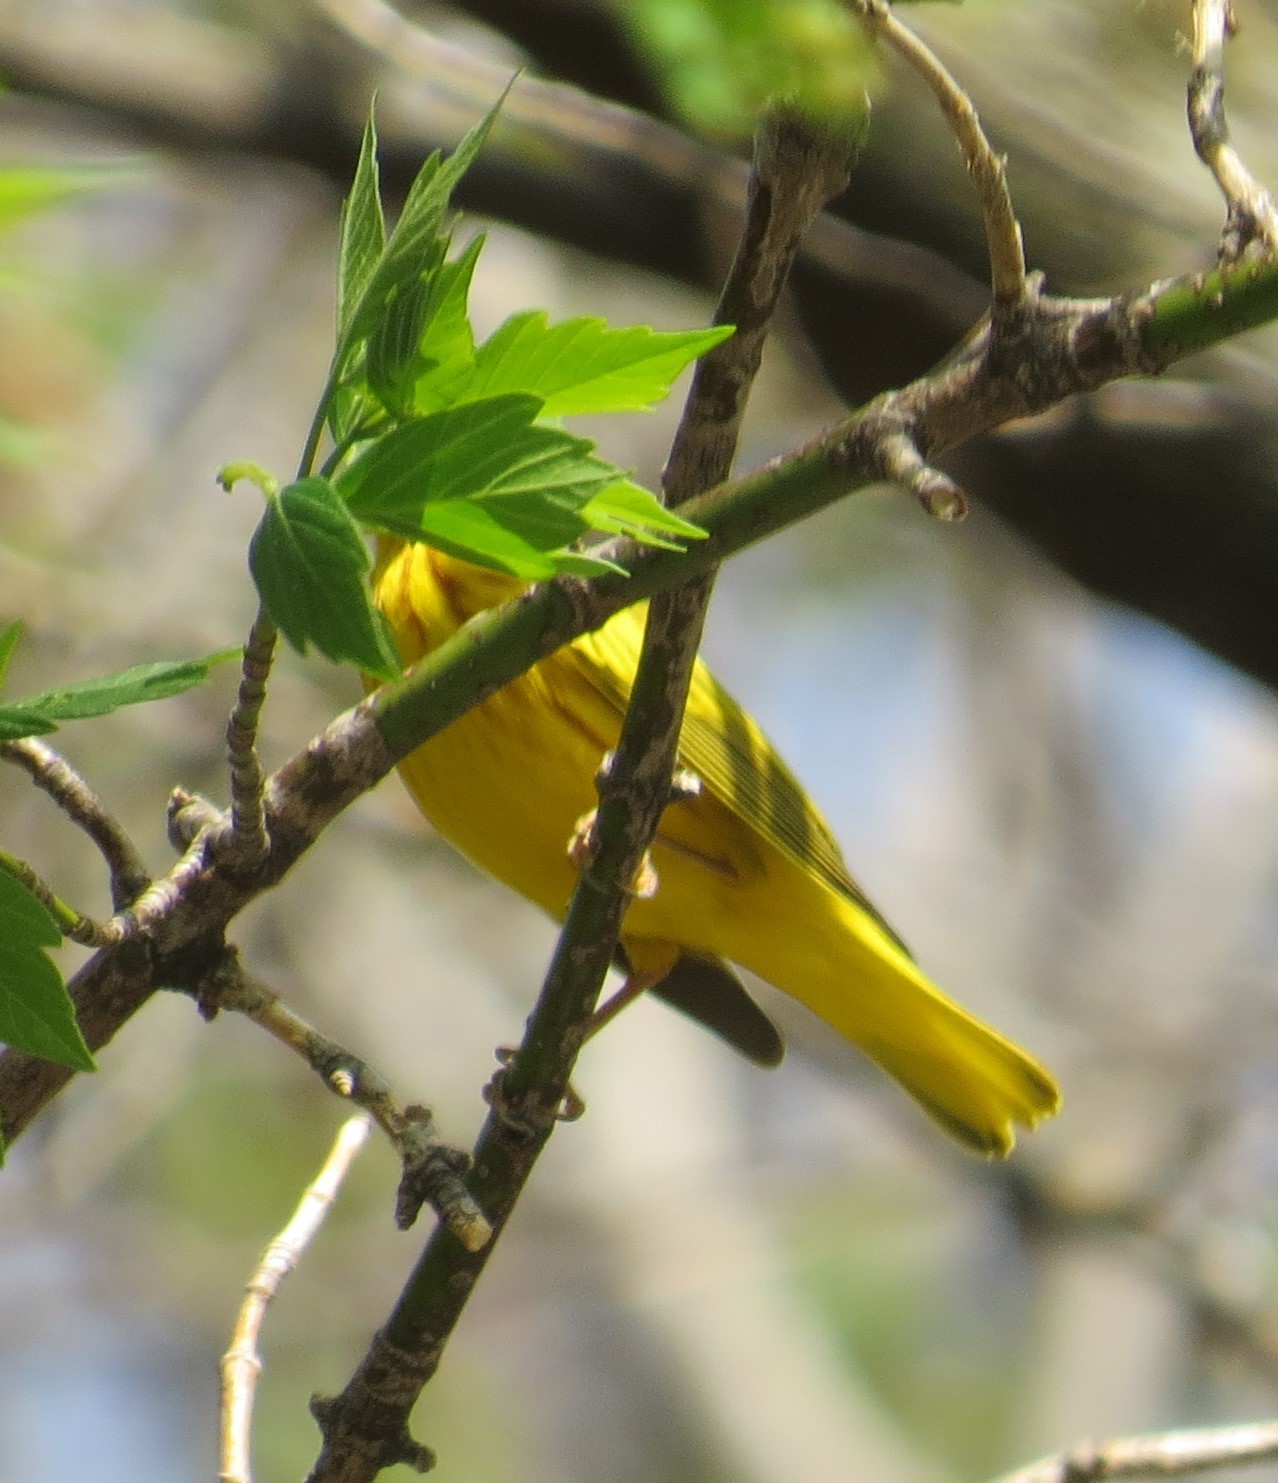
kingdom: Animalia
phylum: Chordata
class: Aves
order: Passeriformes
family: Parulidae
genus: Setophaga
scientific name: Setophaga petechia
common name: Yellow warbler
